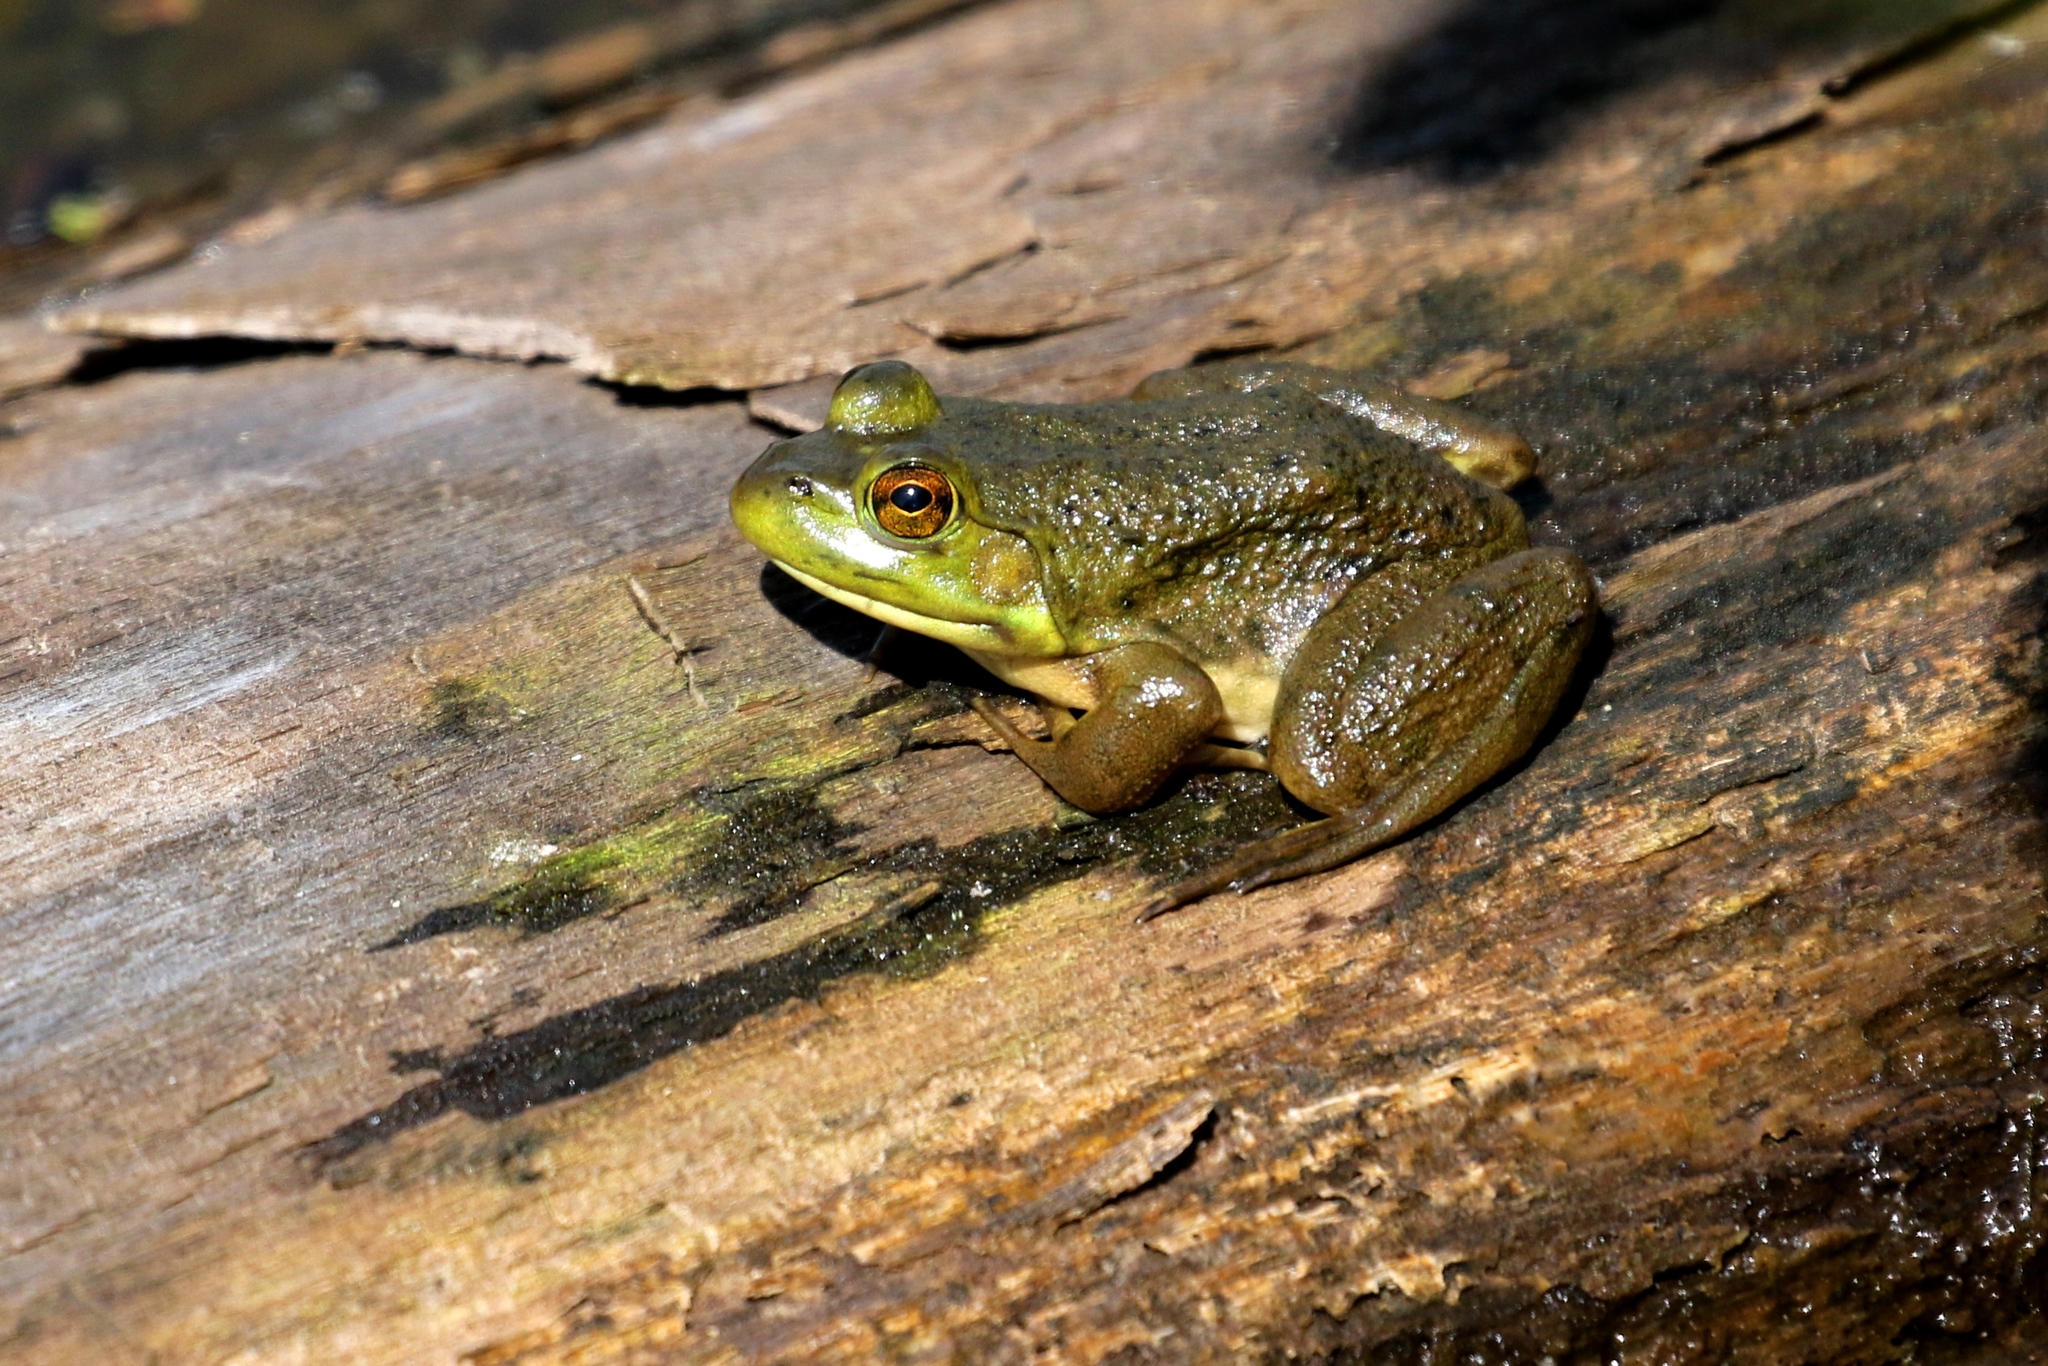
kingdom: Animalia
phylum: Chordata
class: Amphibia
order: Anura
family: Ranidae
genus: Lithobates
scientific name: Lithobates catesbeianus
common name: American bullfrog
